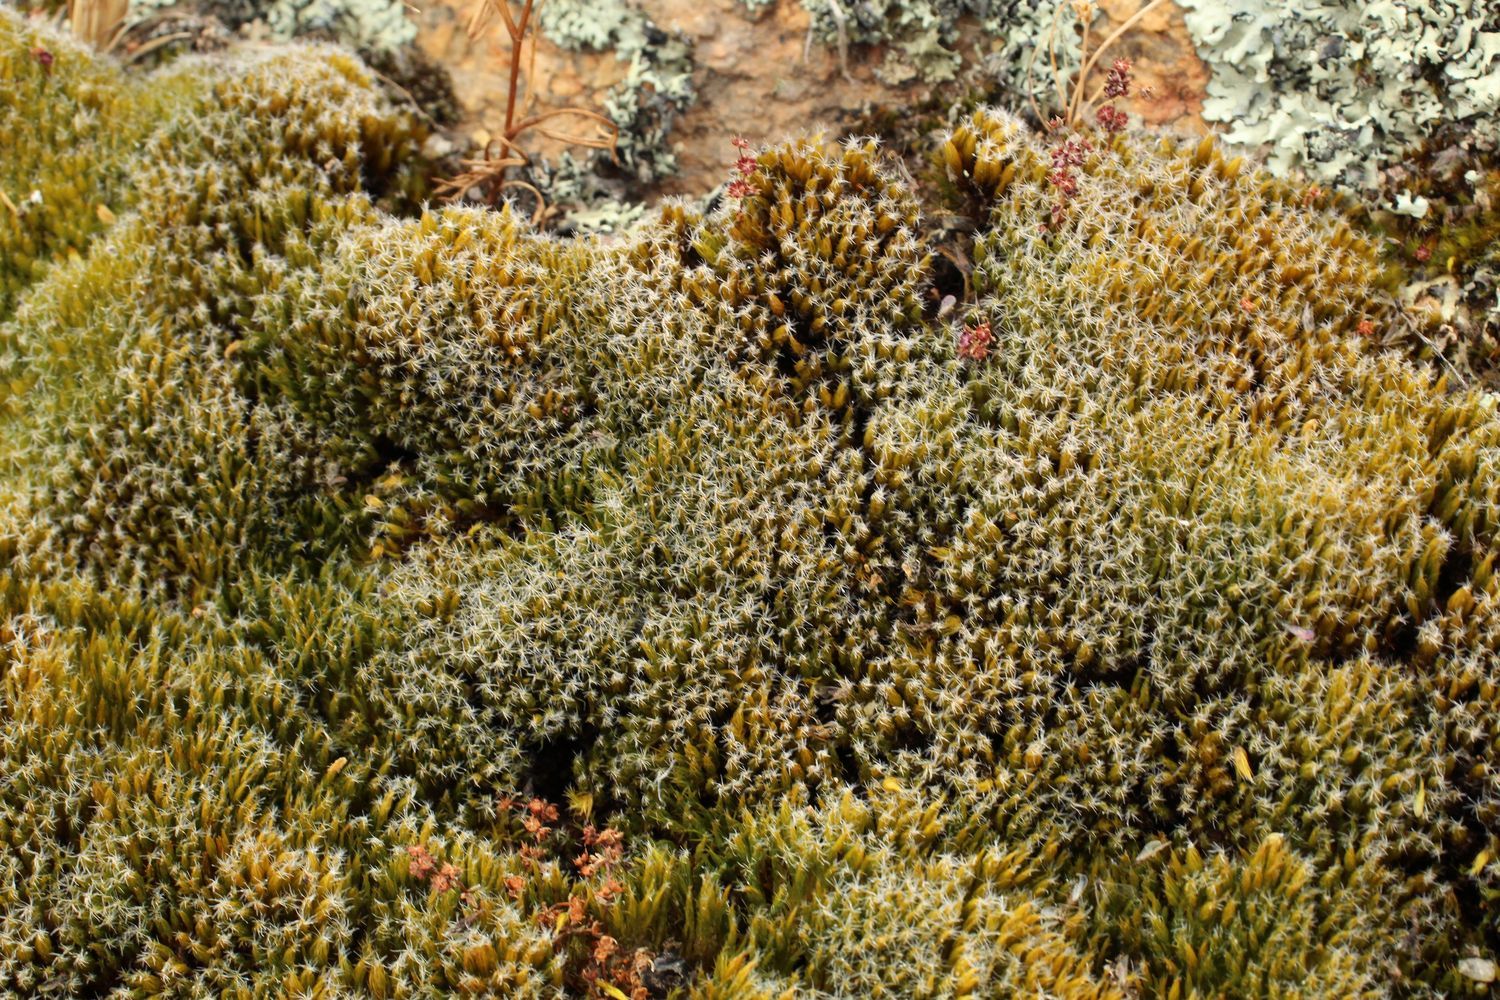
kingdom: Plantae
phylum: Bryophyta
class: Bryopsida
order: Dicranales
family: Leucobryaceae
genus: Campylopus
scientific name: Campylopus introflexus
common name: Heath star moss
